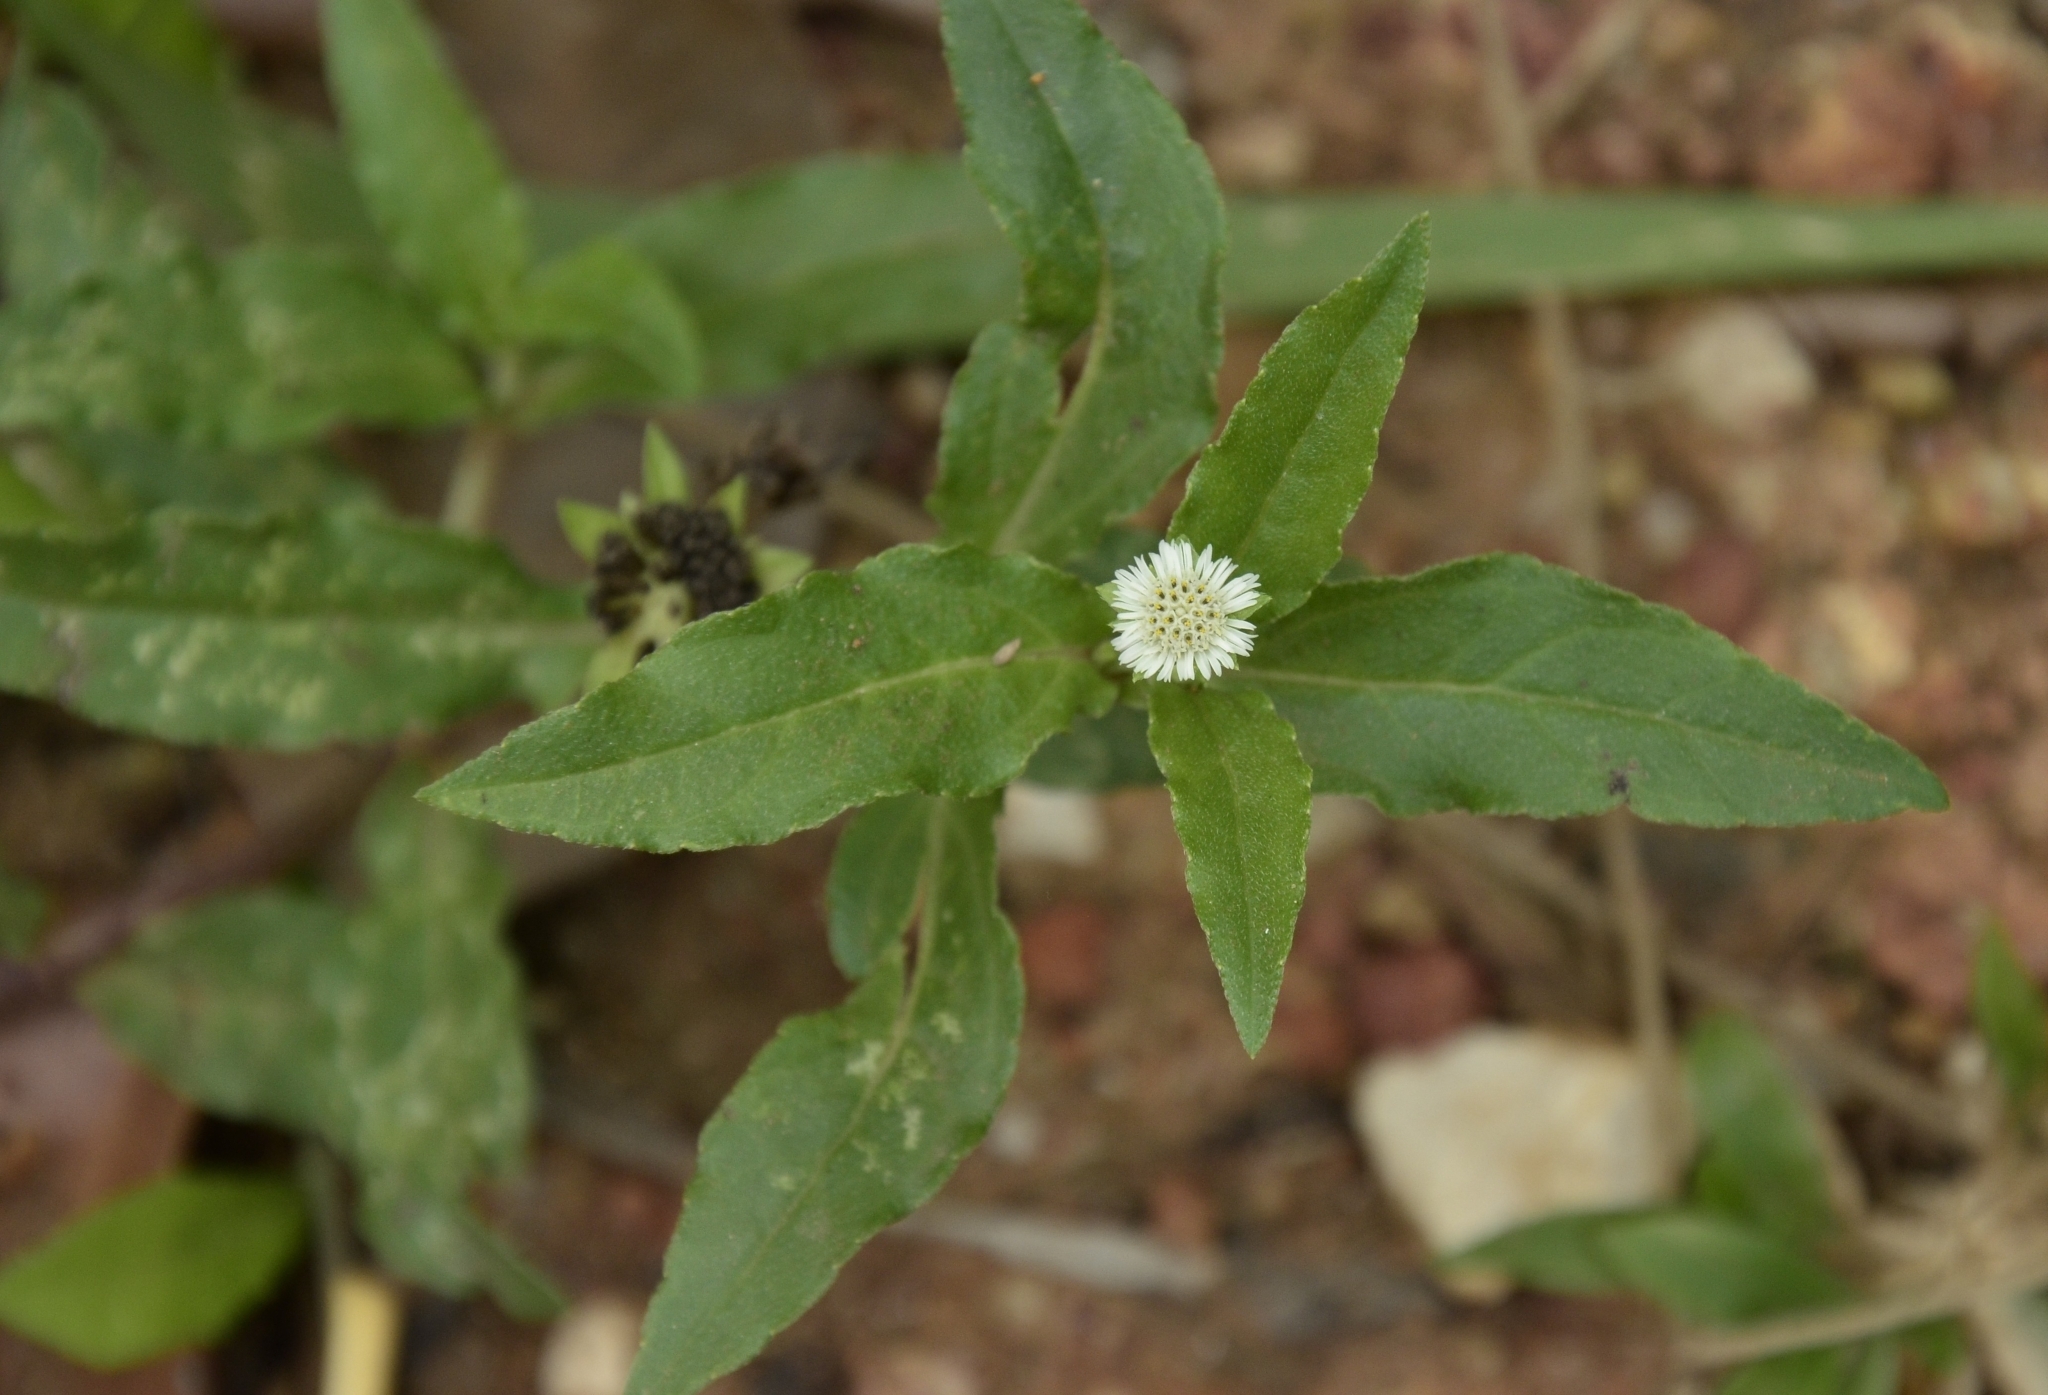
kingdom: Plantae
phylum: Tracheophyta
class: Magnoliopsida
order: Asterales
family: Asteraceae
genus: Eclipta
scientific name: Eclipta prostrata
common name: False daisy
